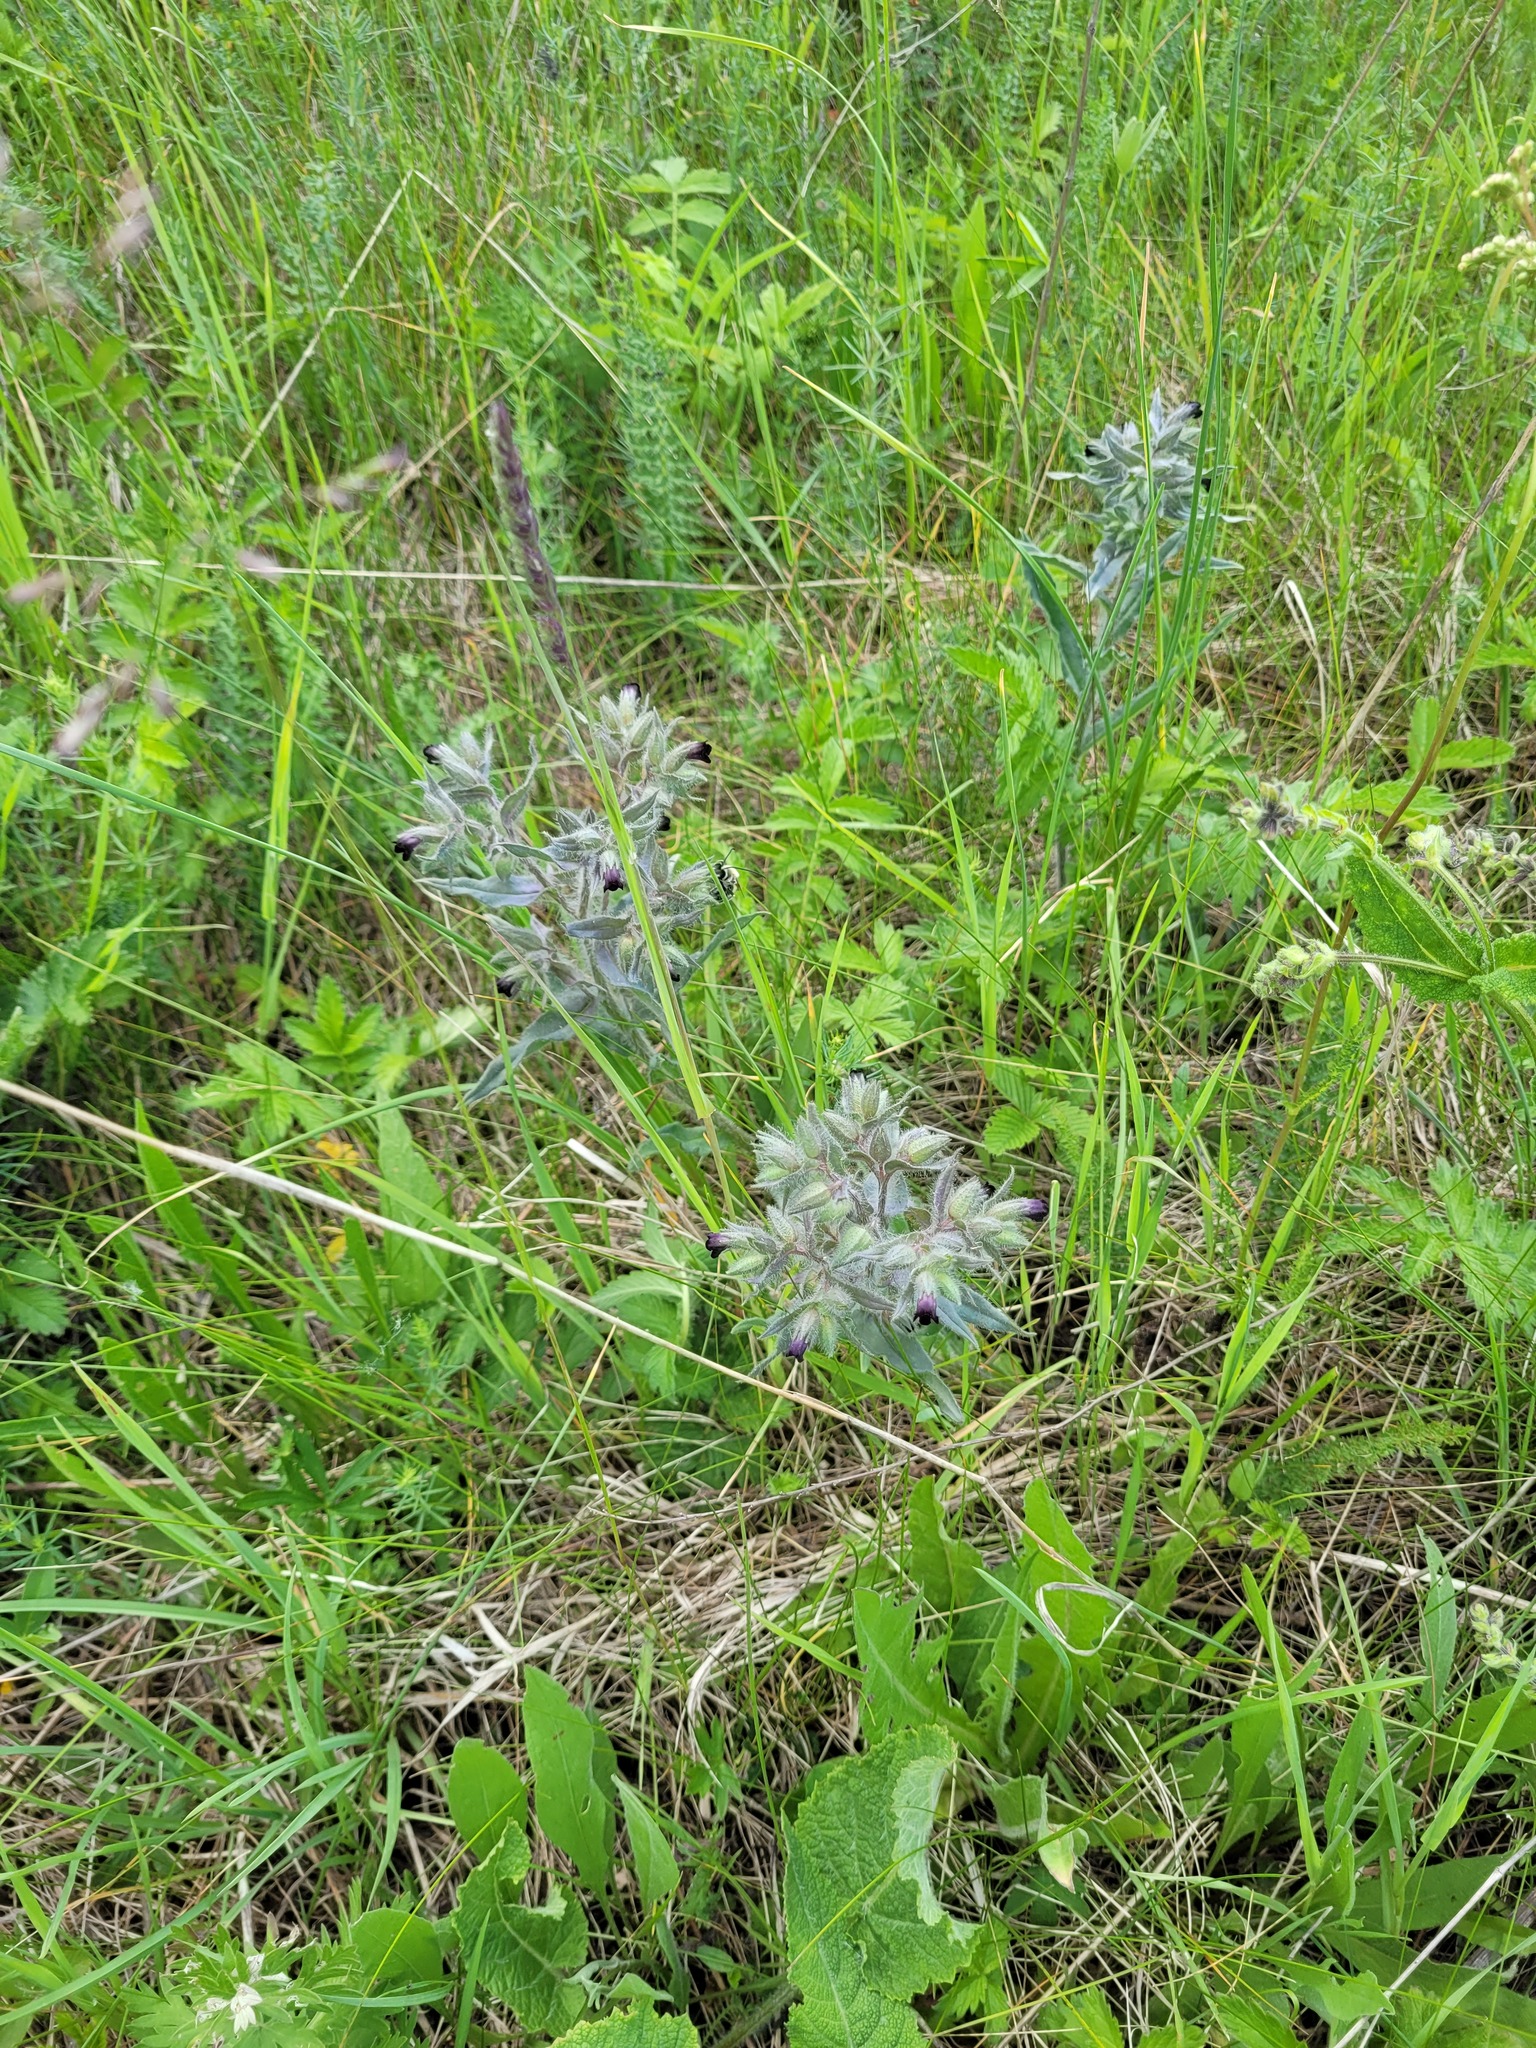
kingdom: Plantae
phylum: Tracheophyta
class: Magnoliopsida
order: Boraginales
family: Boraginaceae
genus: Nonea
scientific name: Nonea pulla
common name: Brown nonea
